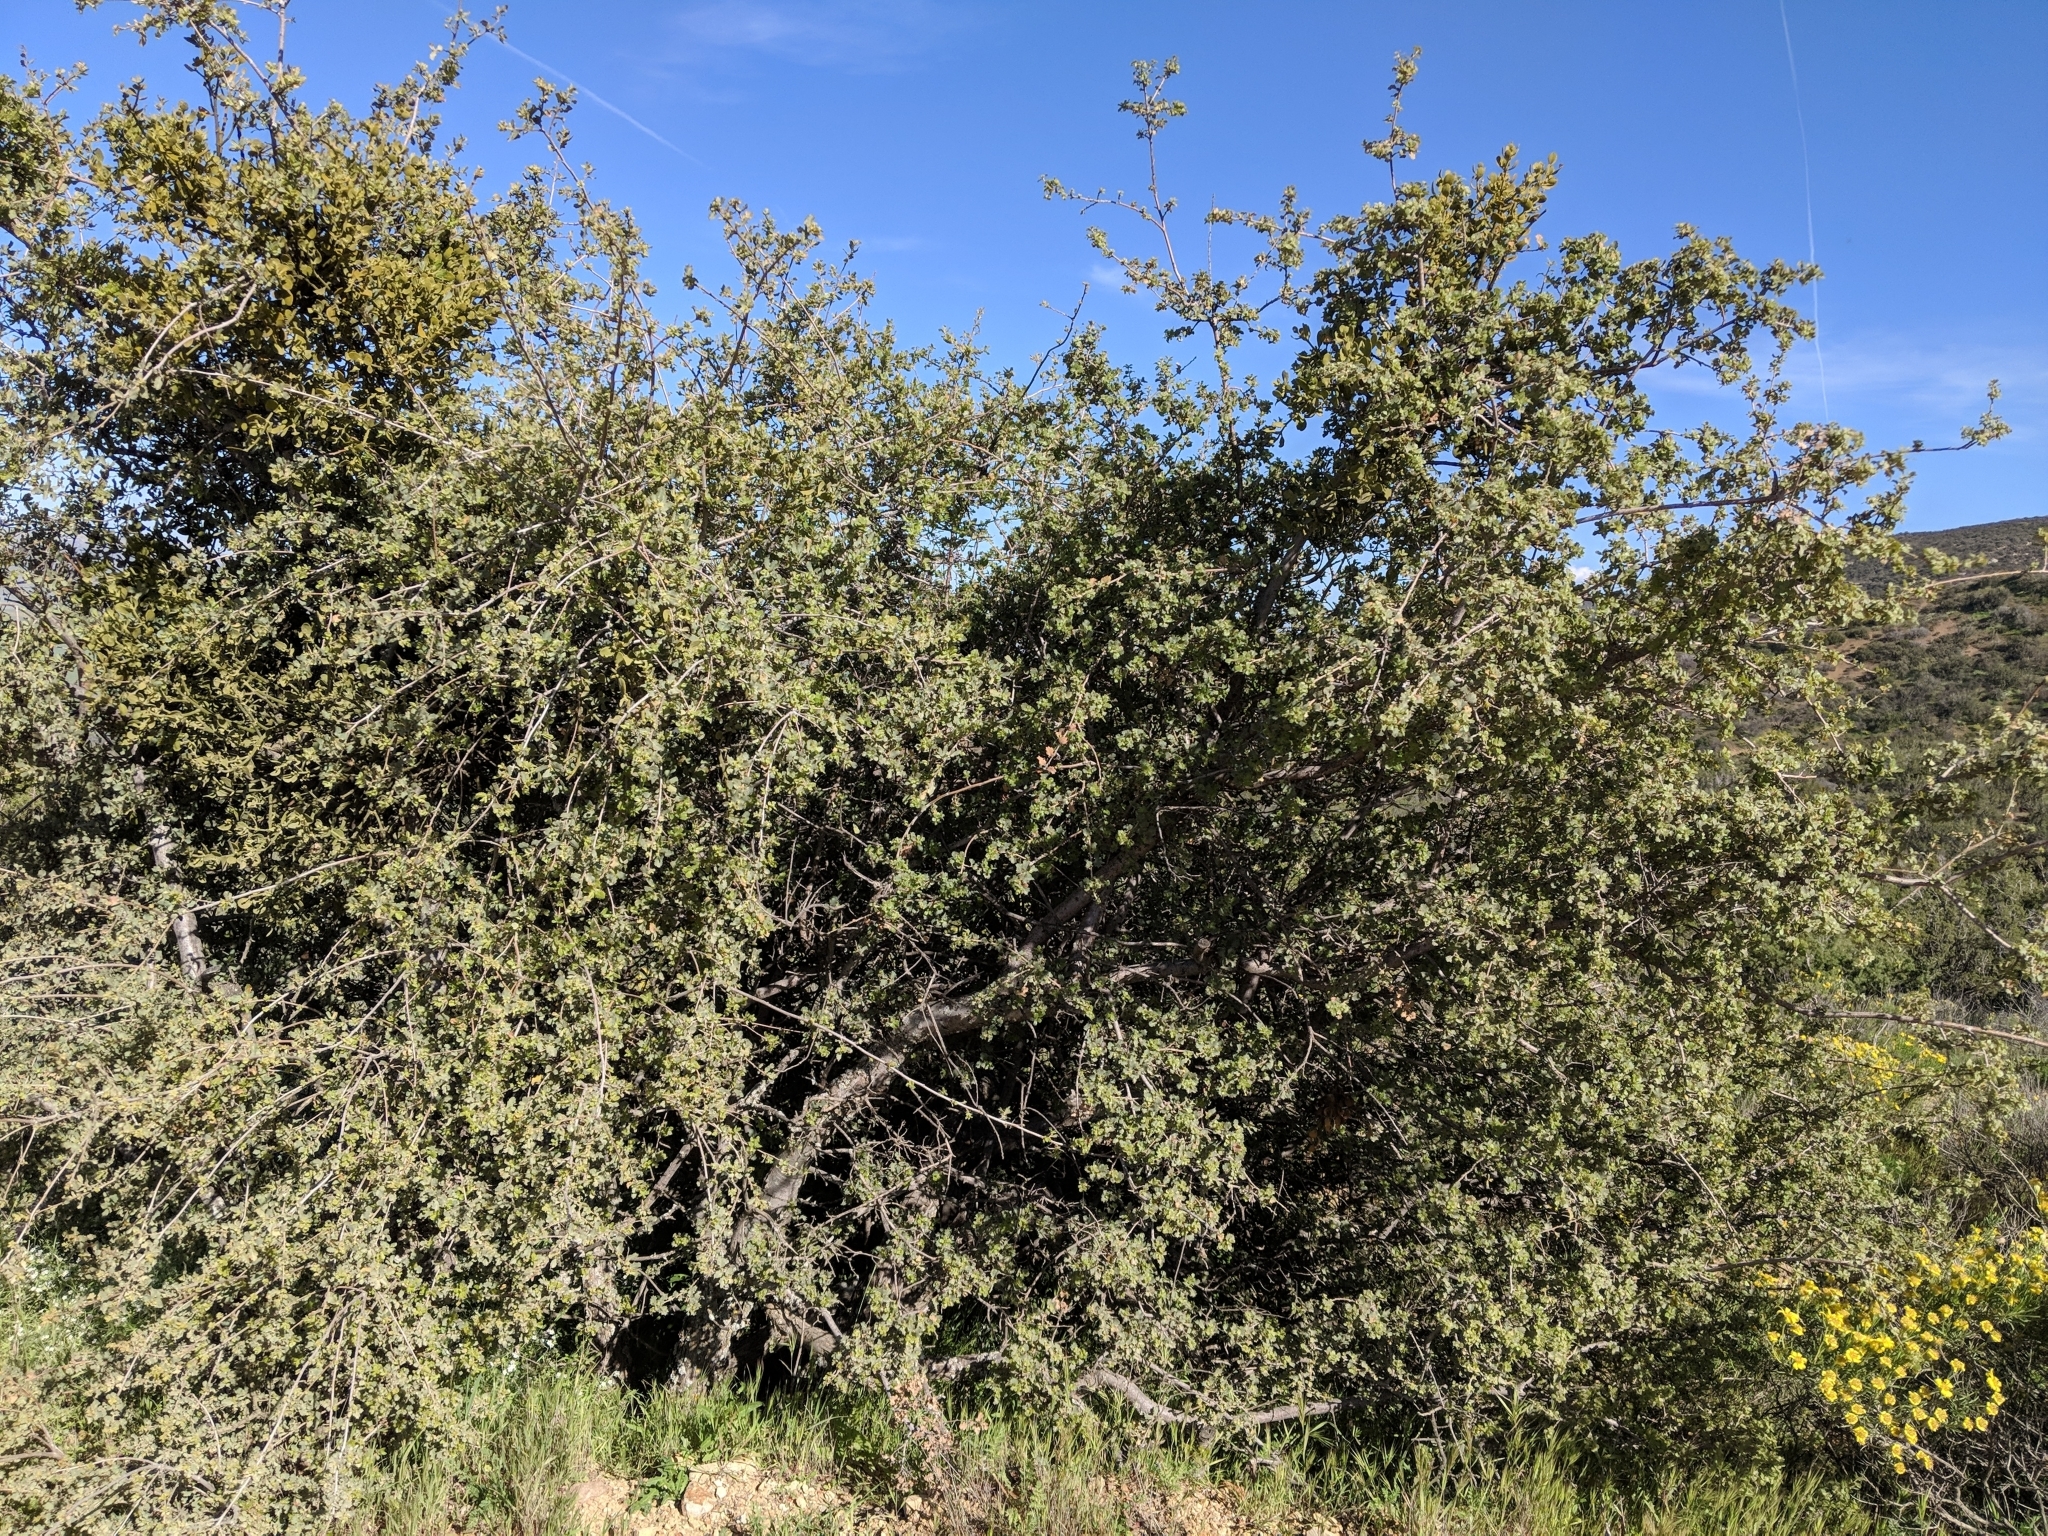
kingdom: Plantae
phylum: Tracheophyta
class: Magnoliopsida
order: Fagales
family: Fagaceae
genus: Quercus
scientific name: Quercus john-tuckeri
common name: Tucker's oak
